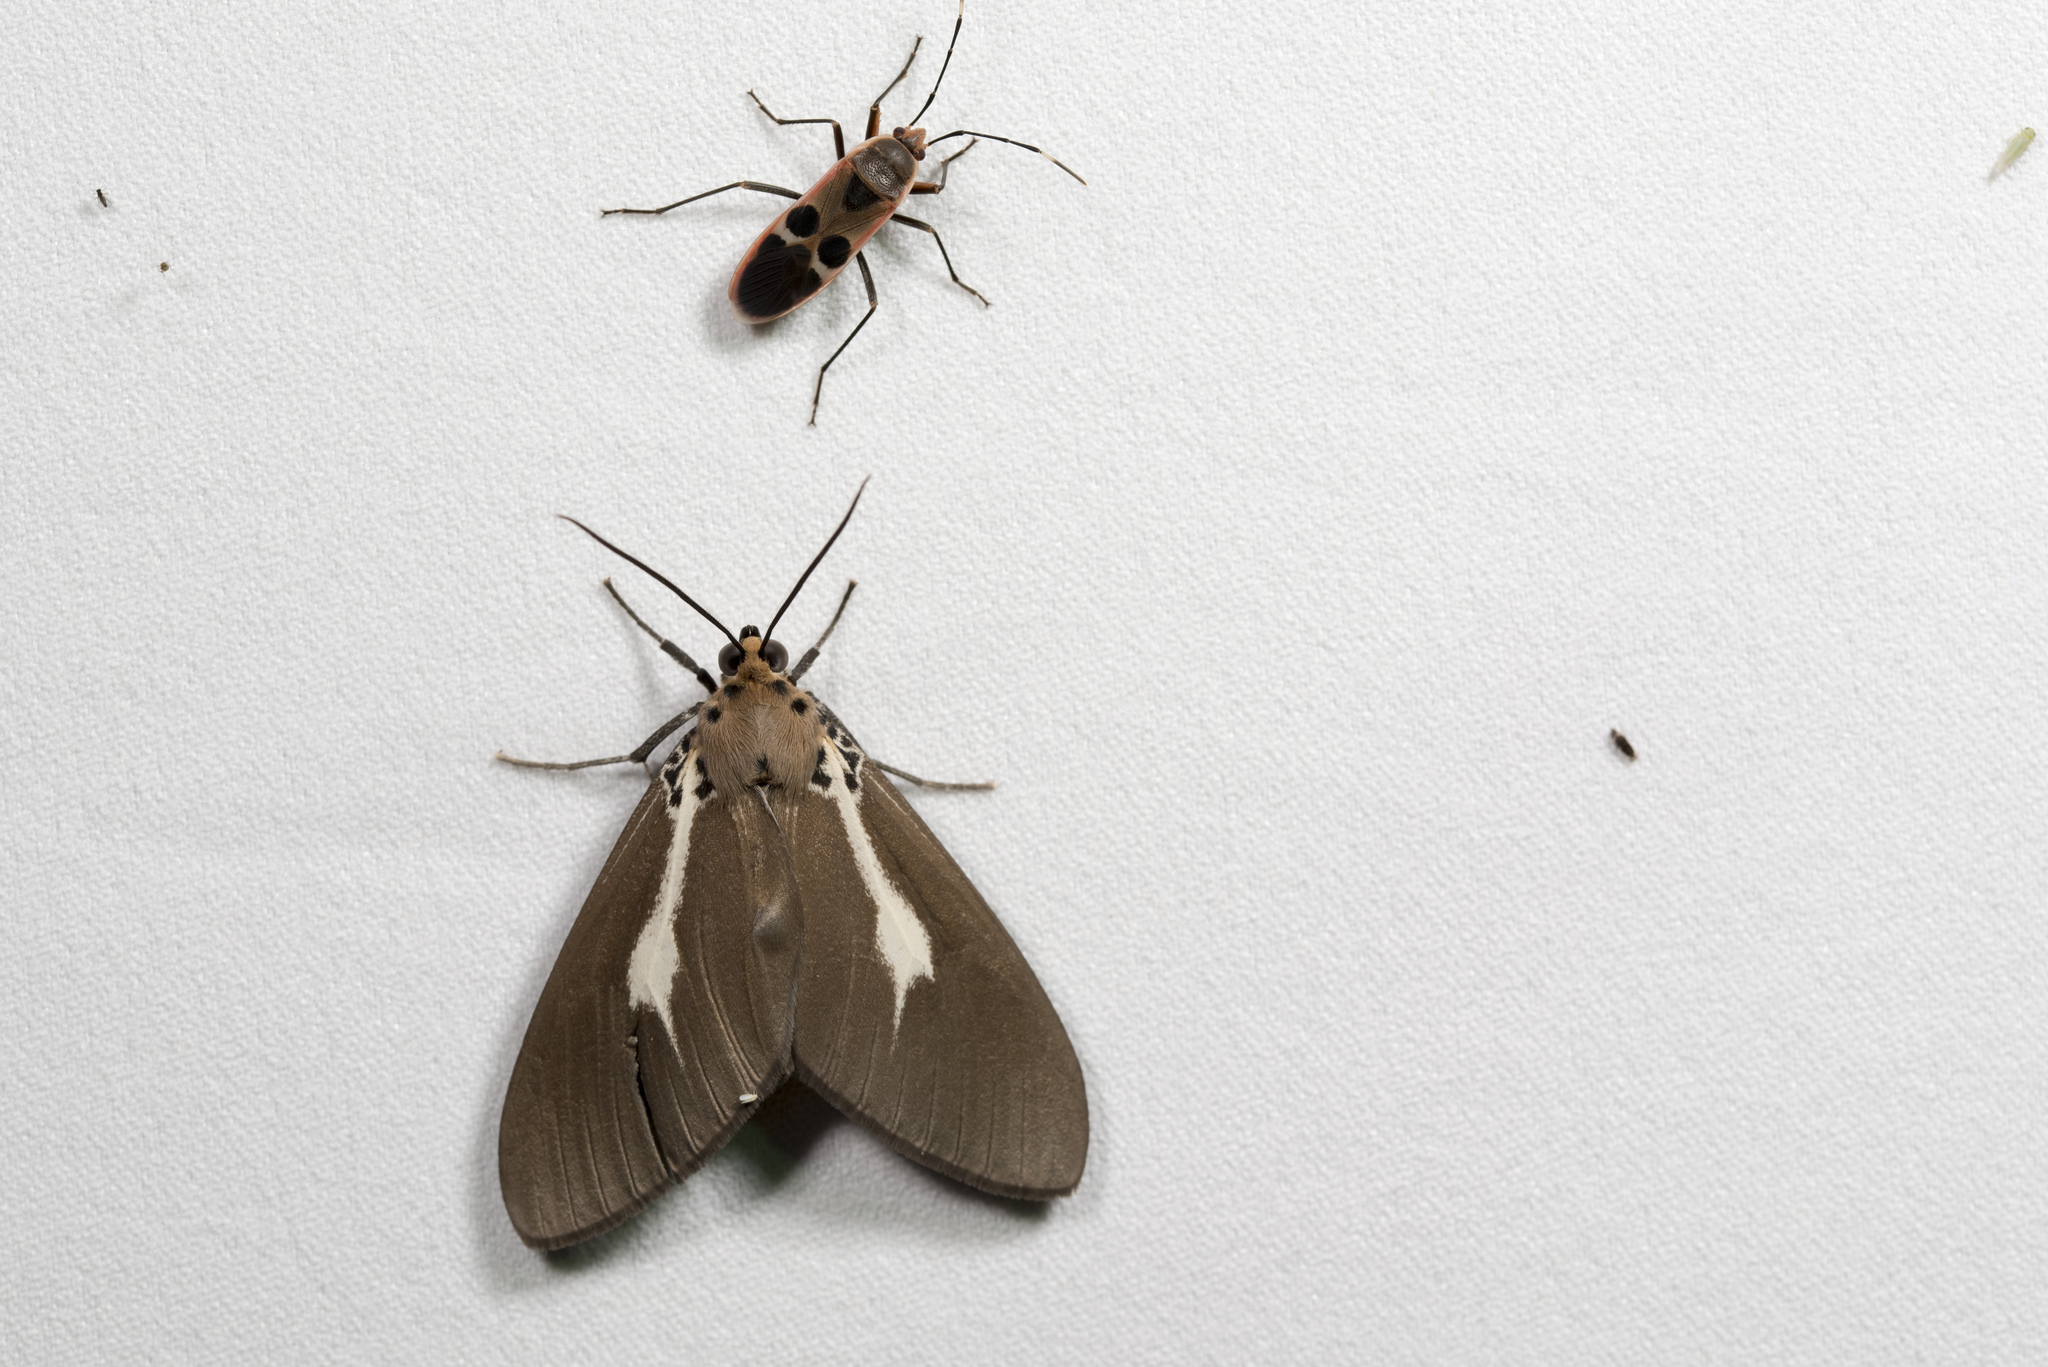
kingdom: Animalia
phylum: Arthropoda
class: Insecta
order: Lepidoptera
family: Erebidae
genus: Asota
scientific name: Asota heliconia
